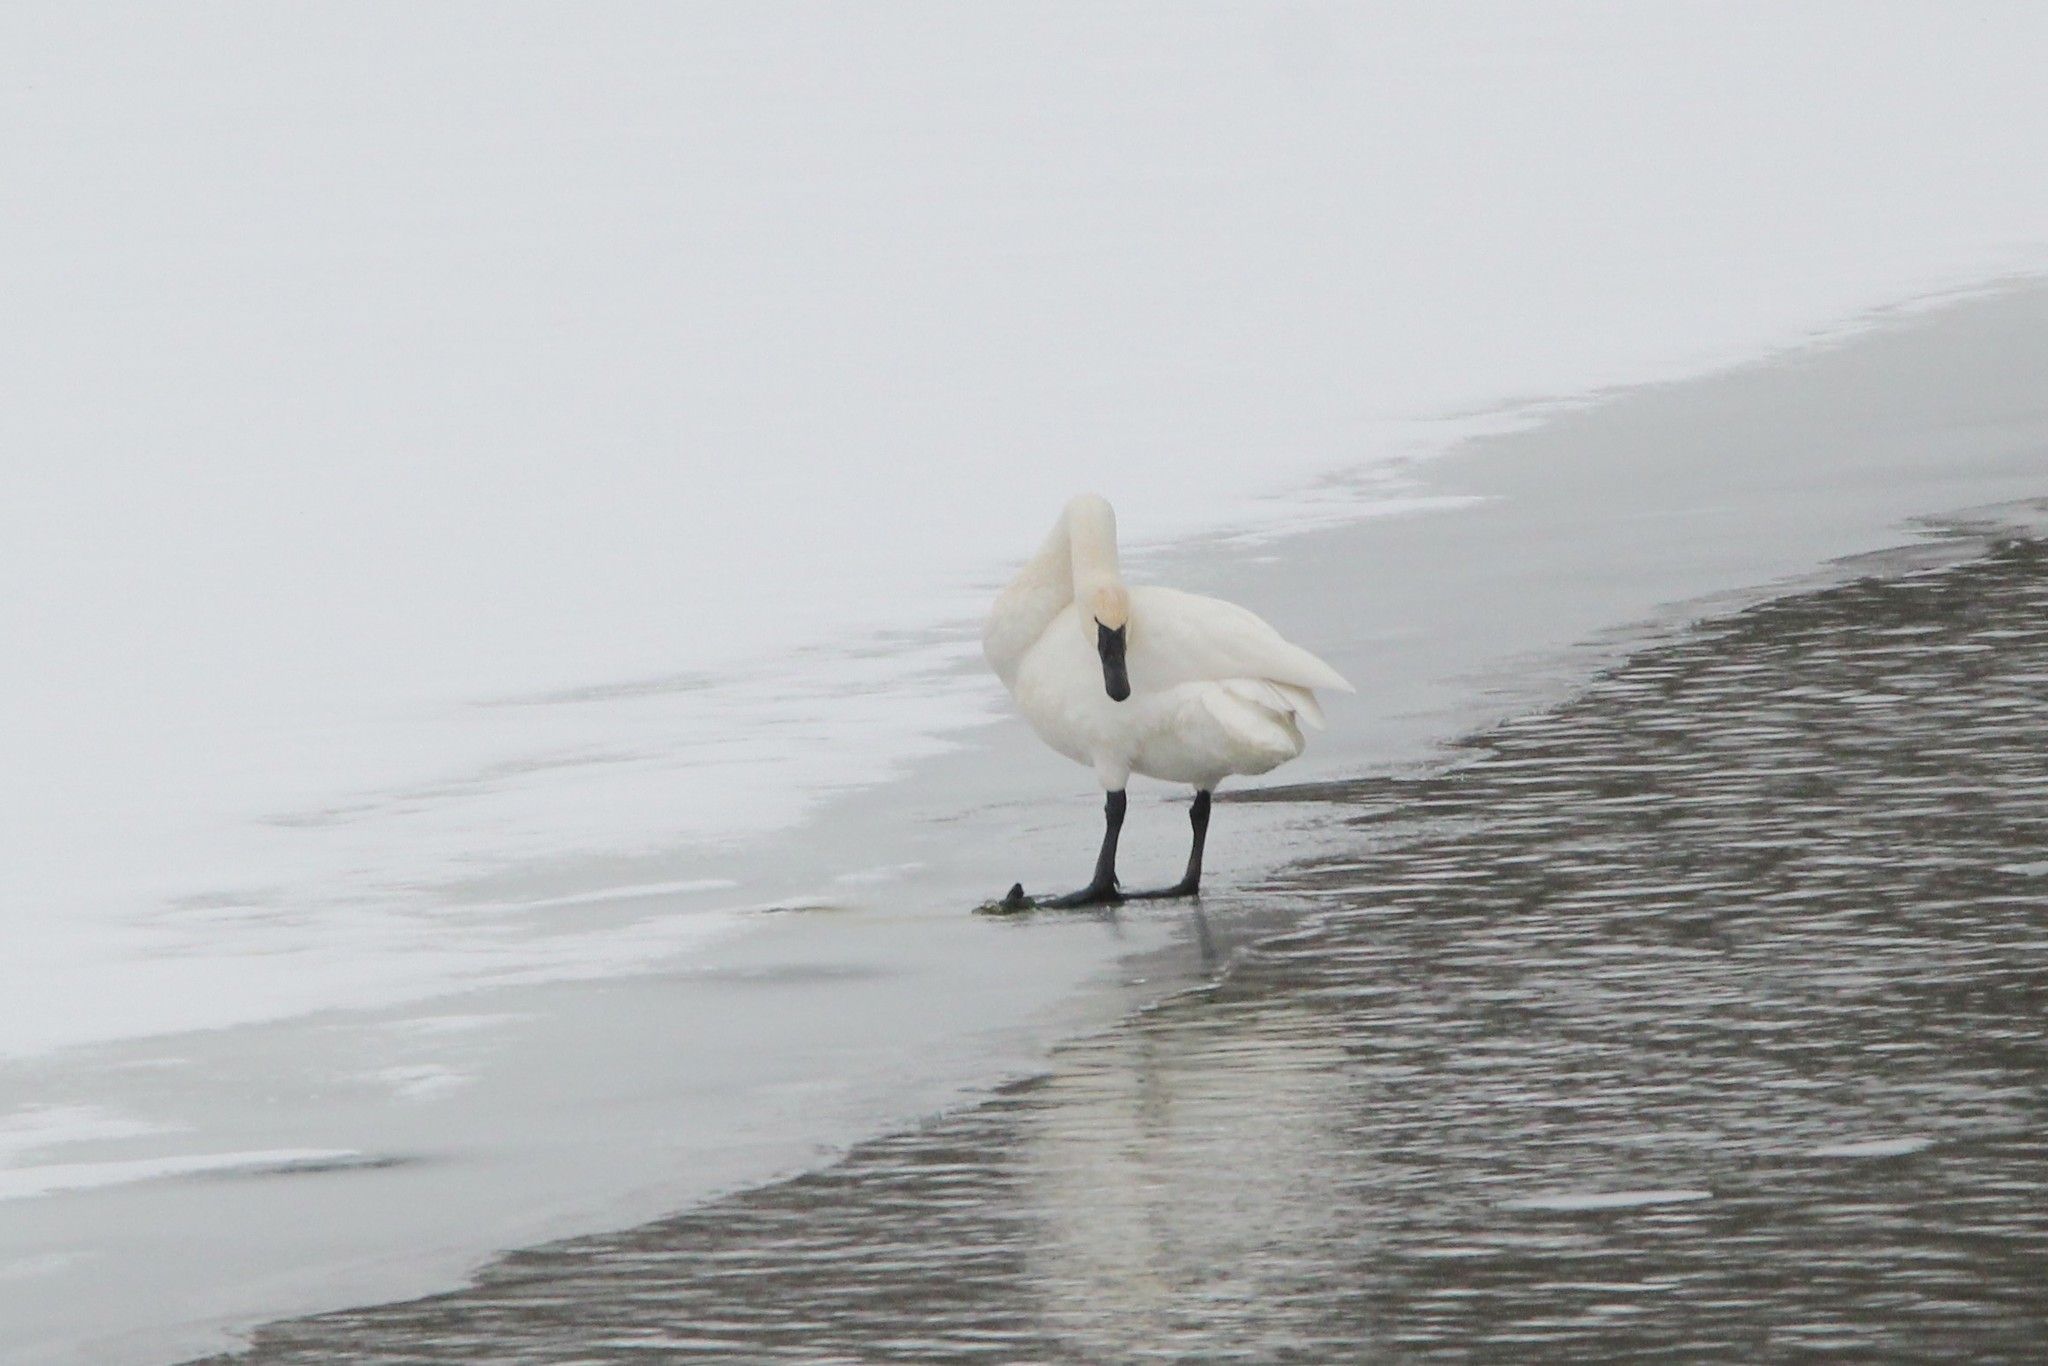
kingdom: Animalia
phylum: Chordata
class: Aves
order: Anseriformes
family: Anatidae
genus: Cygnus
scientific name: Cygnus buccinator
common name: Trumpeter swan
